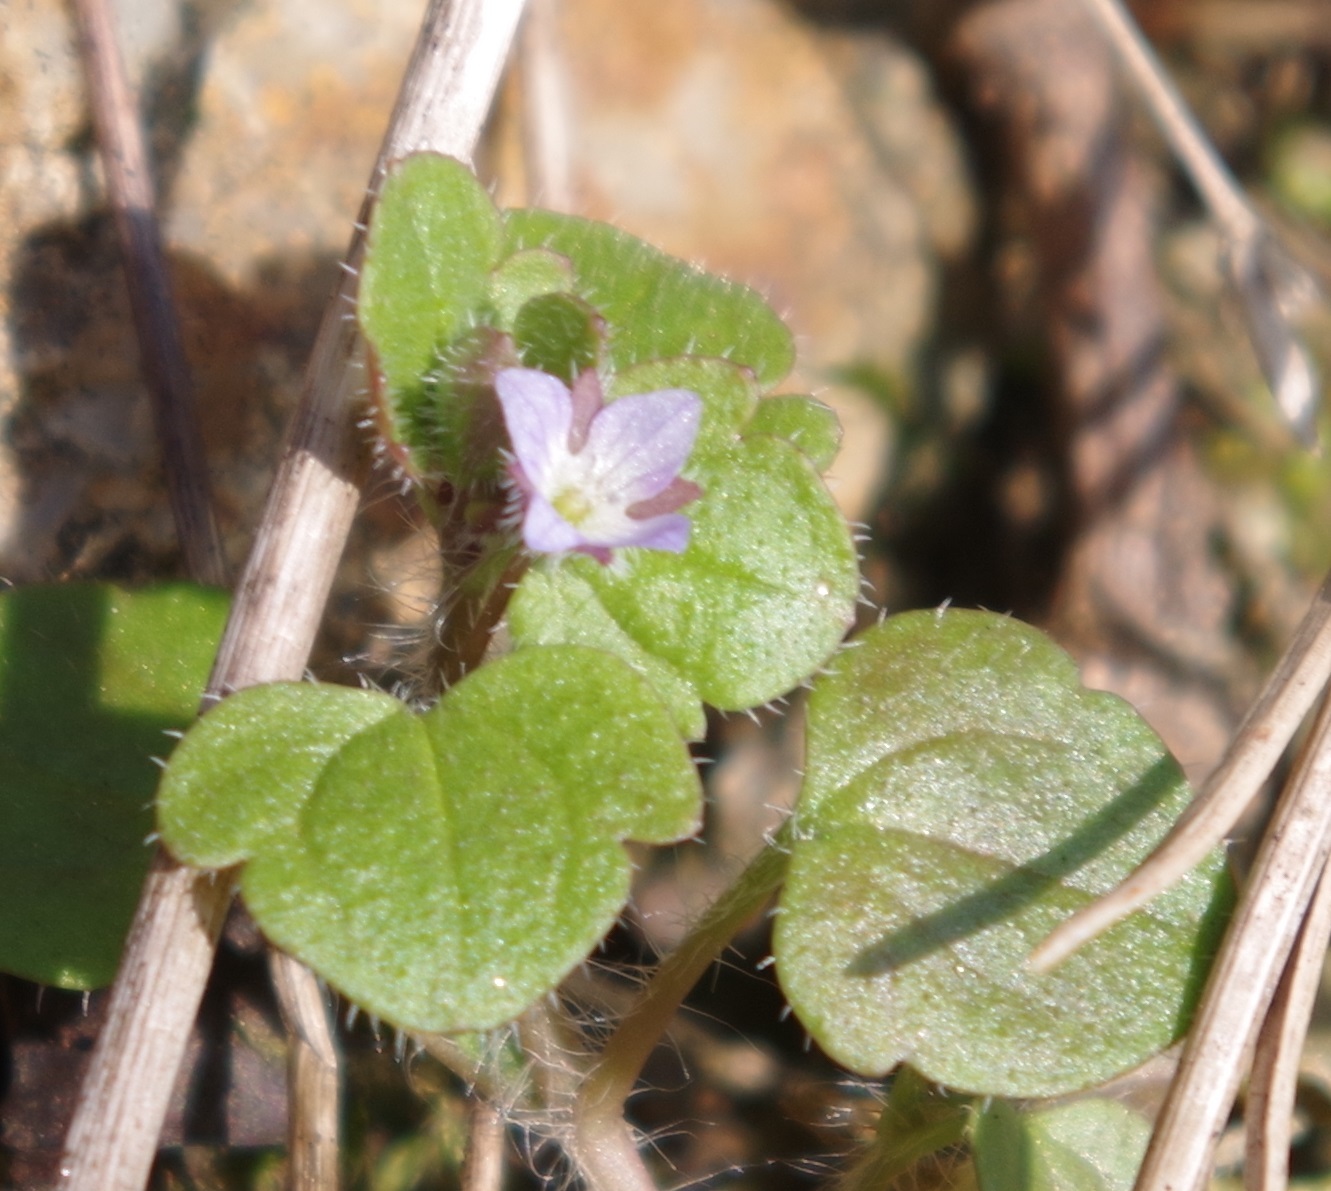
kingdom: Plantae
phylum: Tracheophyta
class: Magnoliopsida
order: Lamiales
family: Plantaginaceae
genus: Veronica
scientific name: Veronica sublobata
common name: False ivy-leaved speedwell
